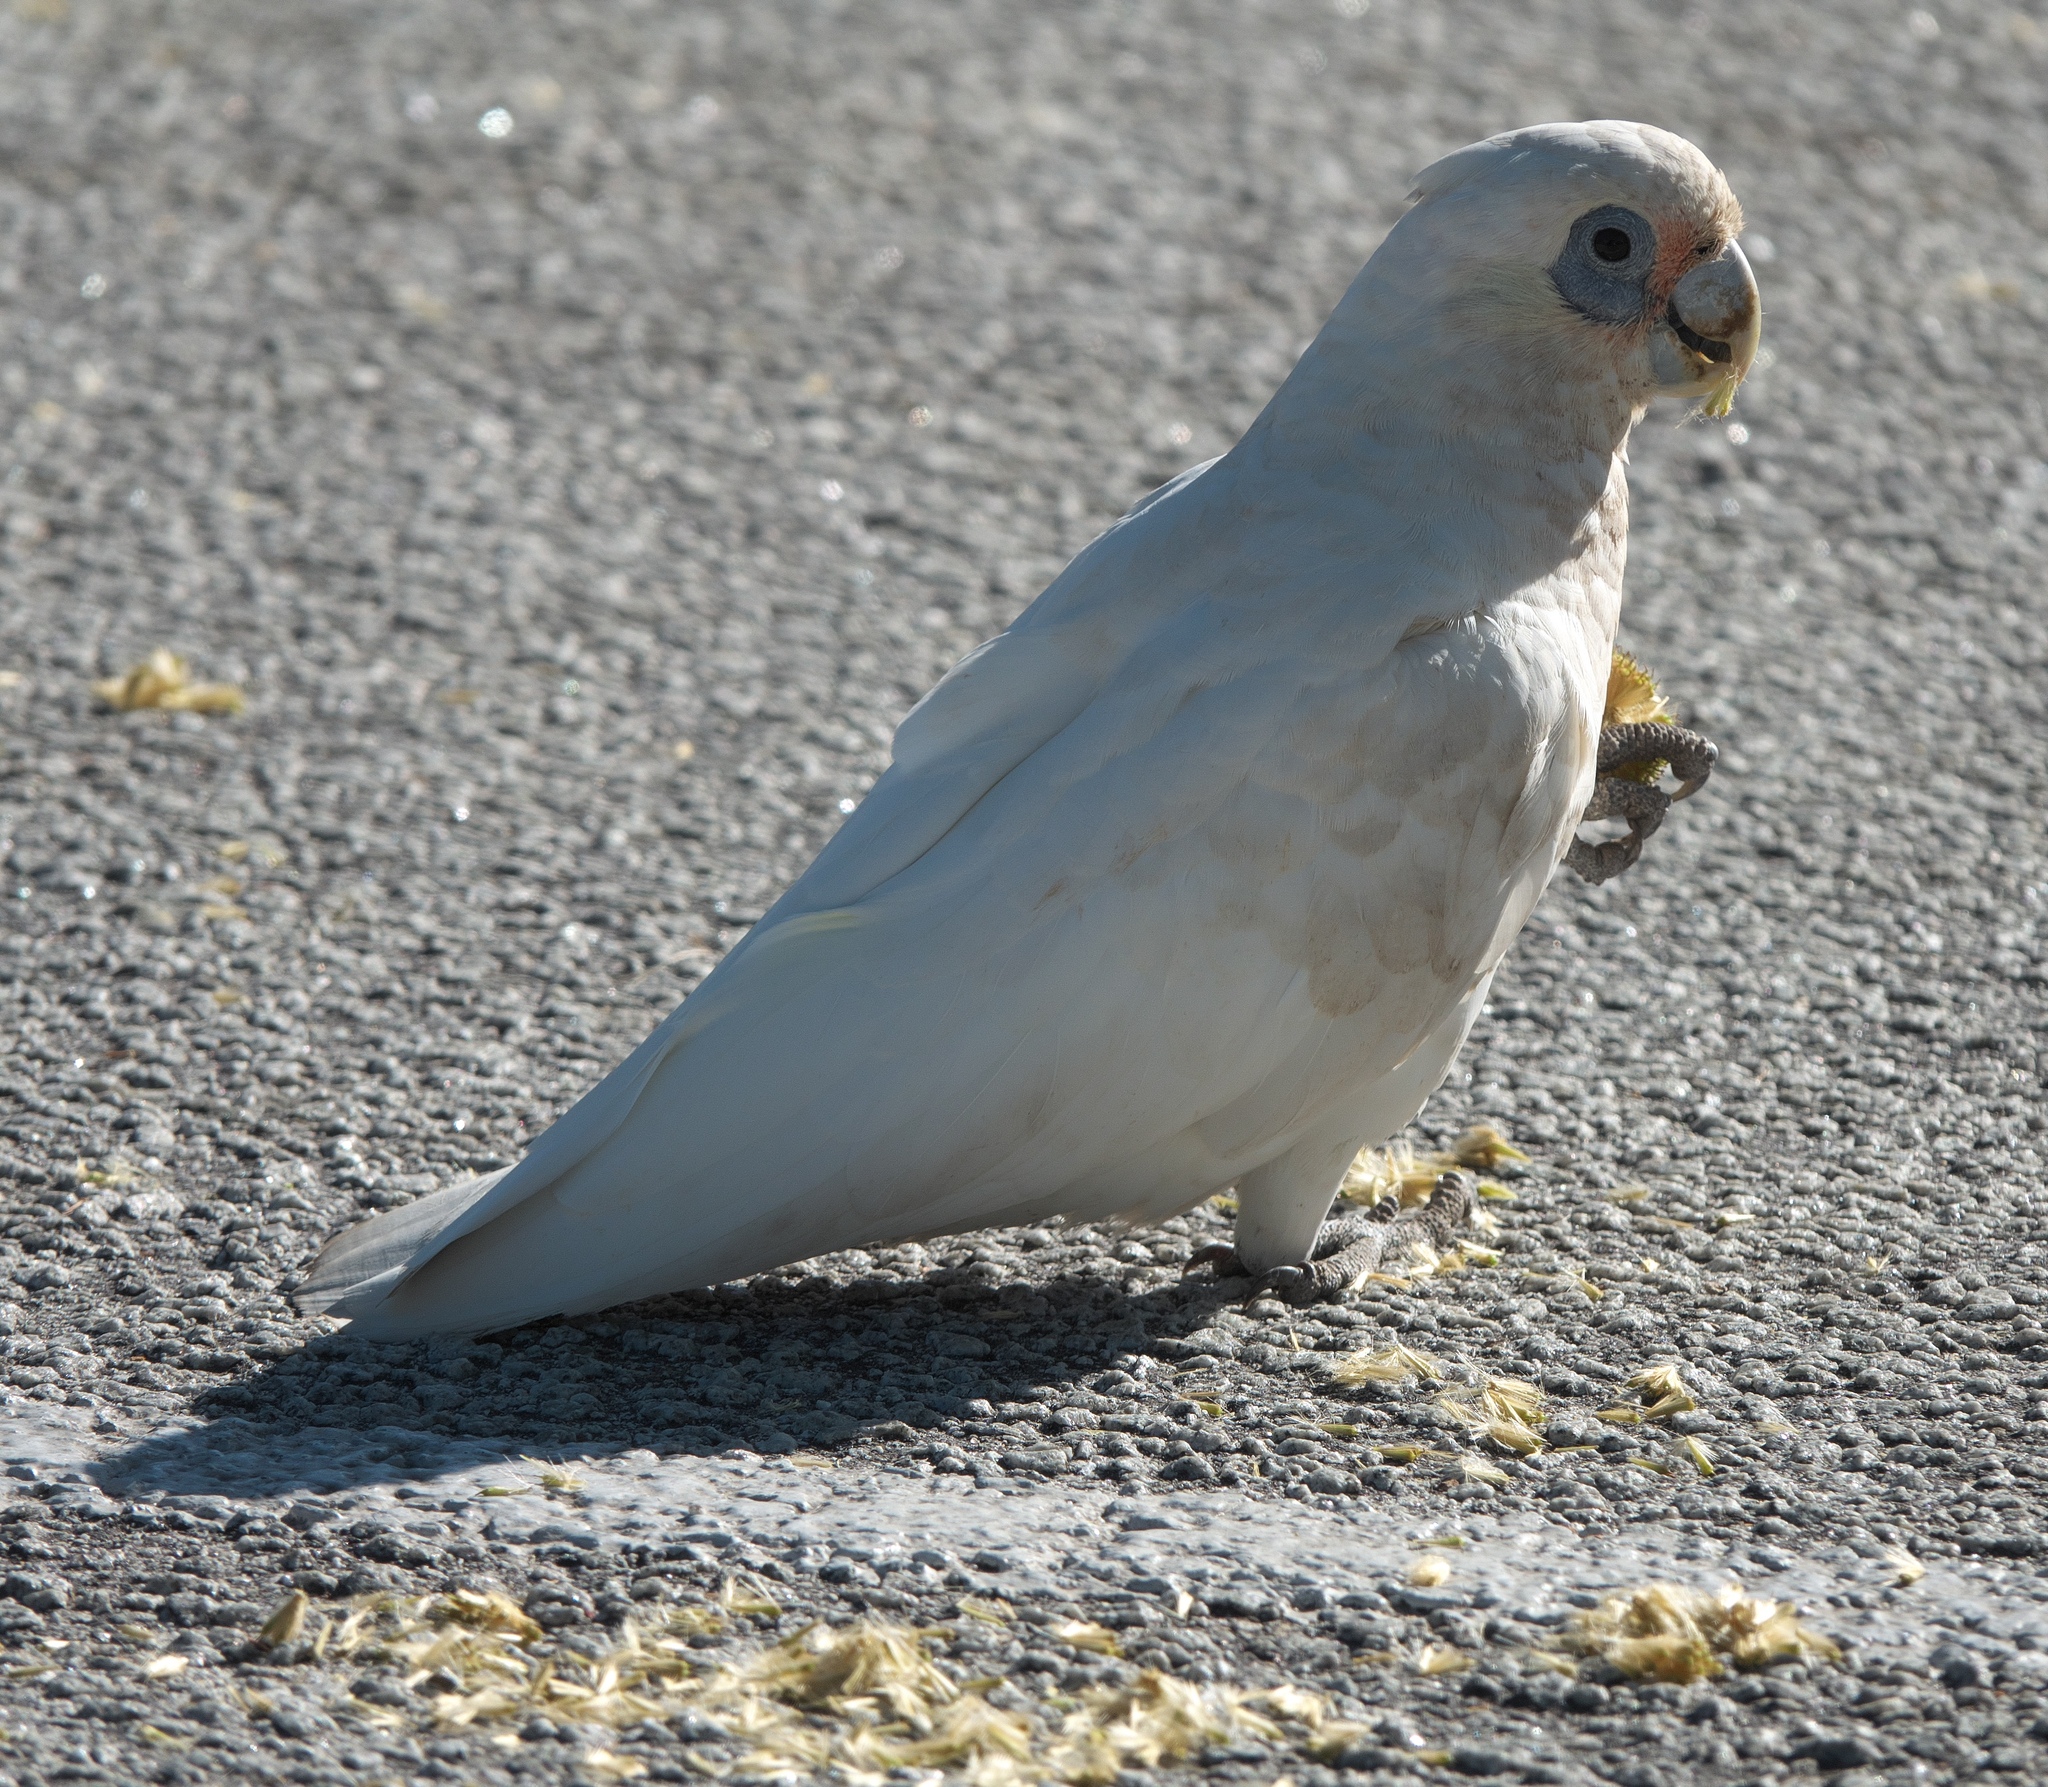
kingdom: Animalia
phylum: Chordata
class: Aves
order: Psittaciformes
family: Psittacidae
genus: Cacatua
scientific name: Cacatua sanguinea
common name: Little corella
